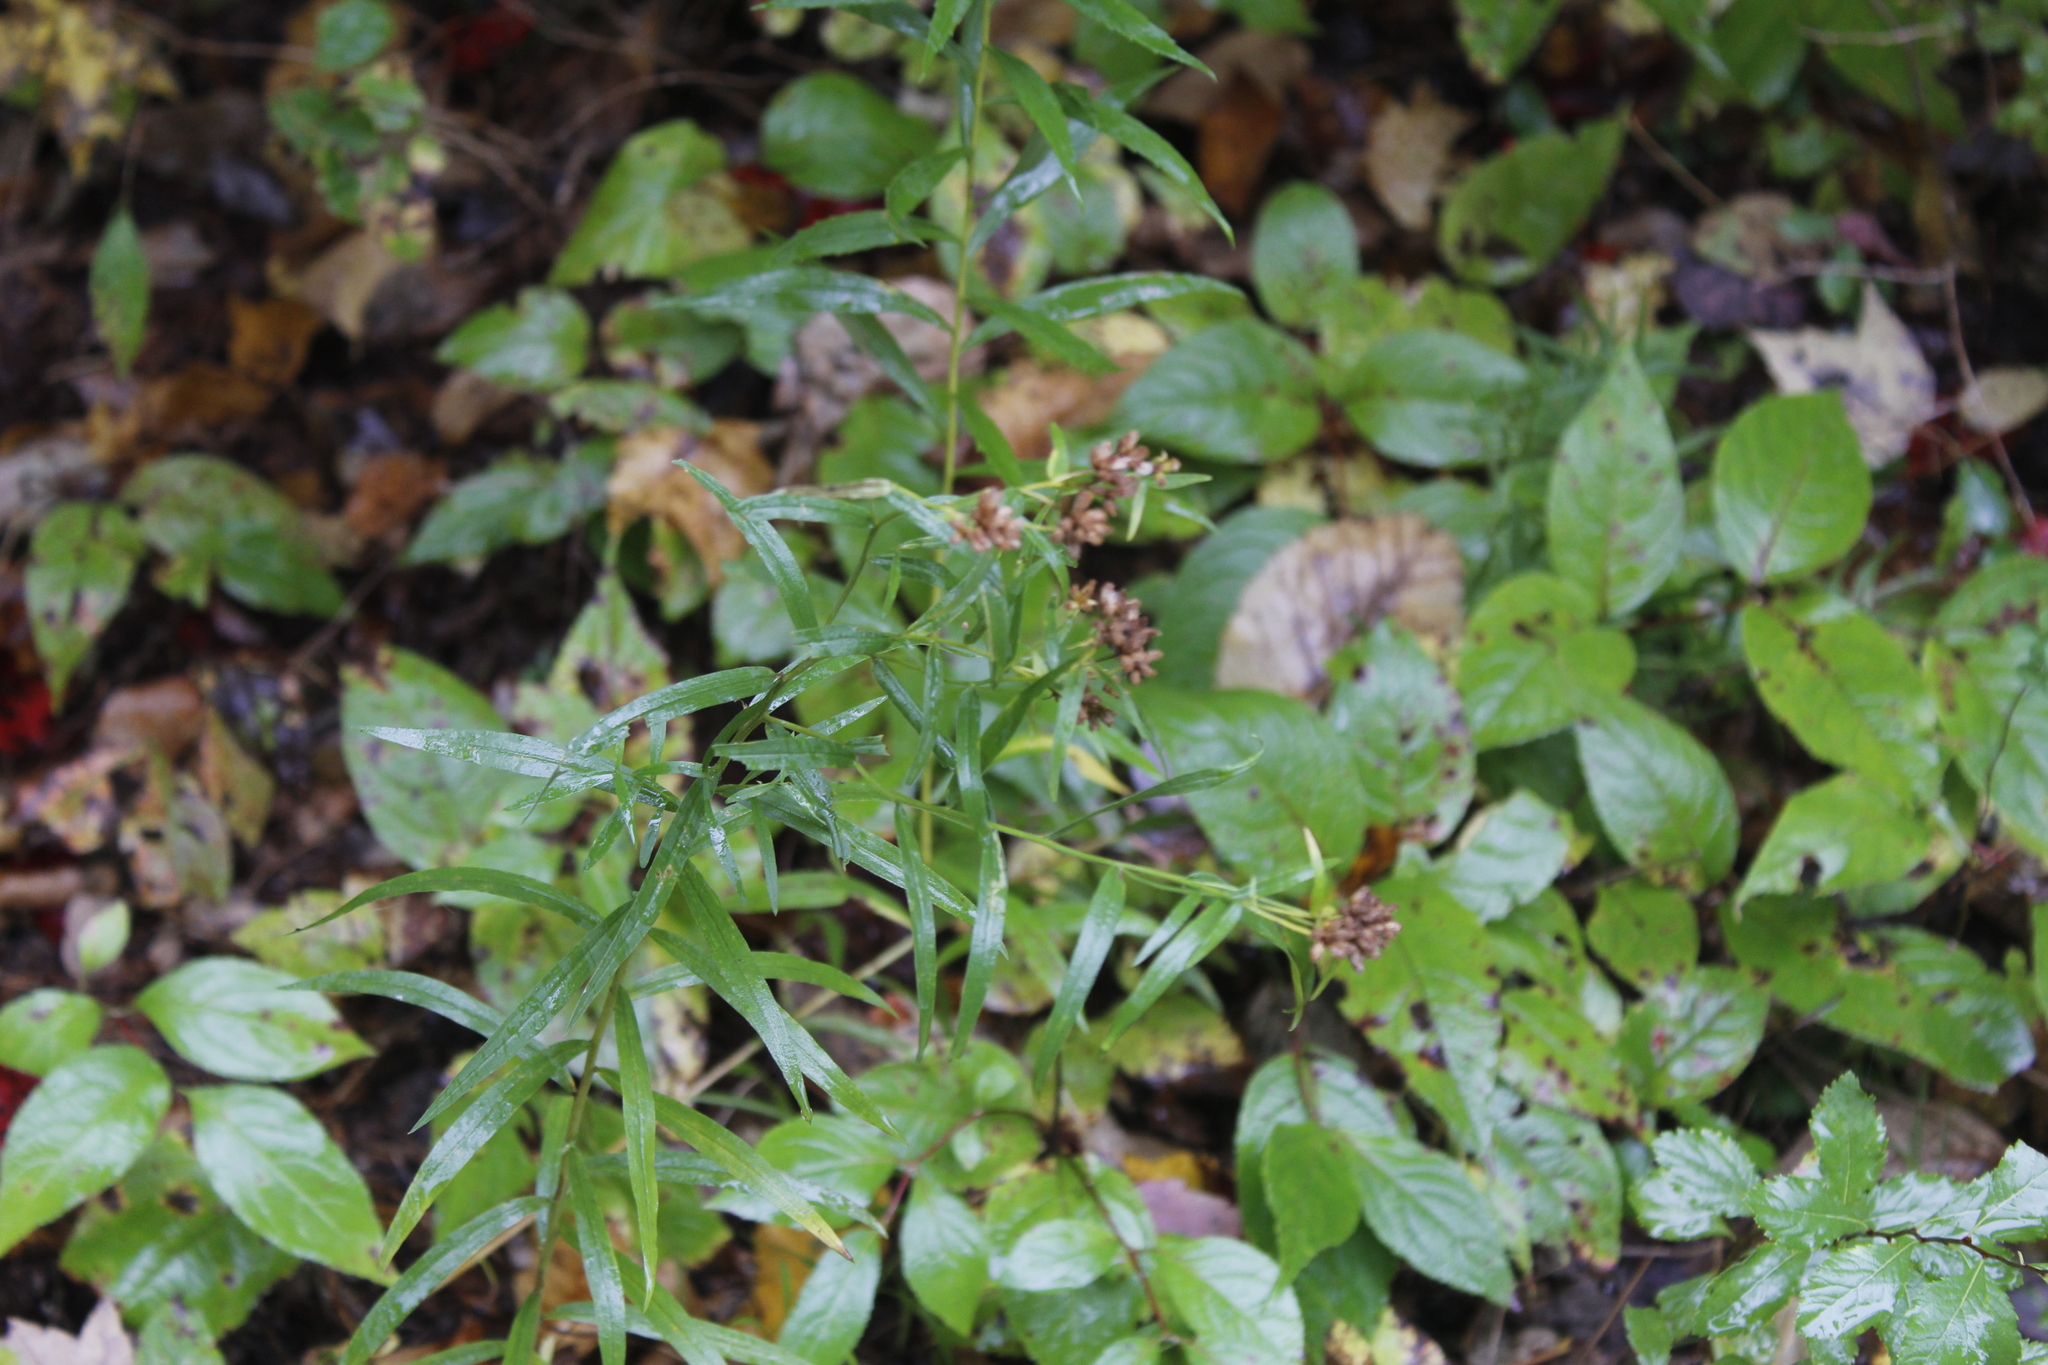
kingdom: Plantae
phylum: Tracheophyta
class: Magnoliopsida
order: Asterales
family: Asteraceae
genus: Euthamia
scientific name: Euthamia graminifolia
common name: Common goldentop
